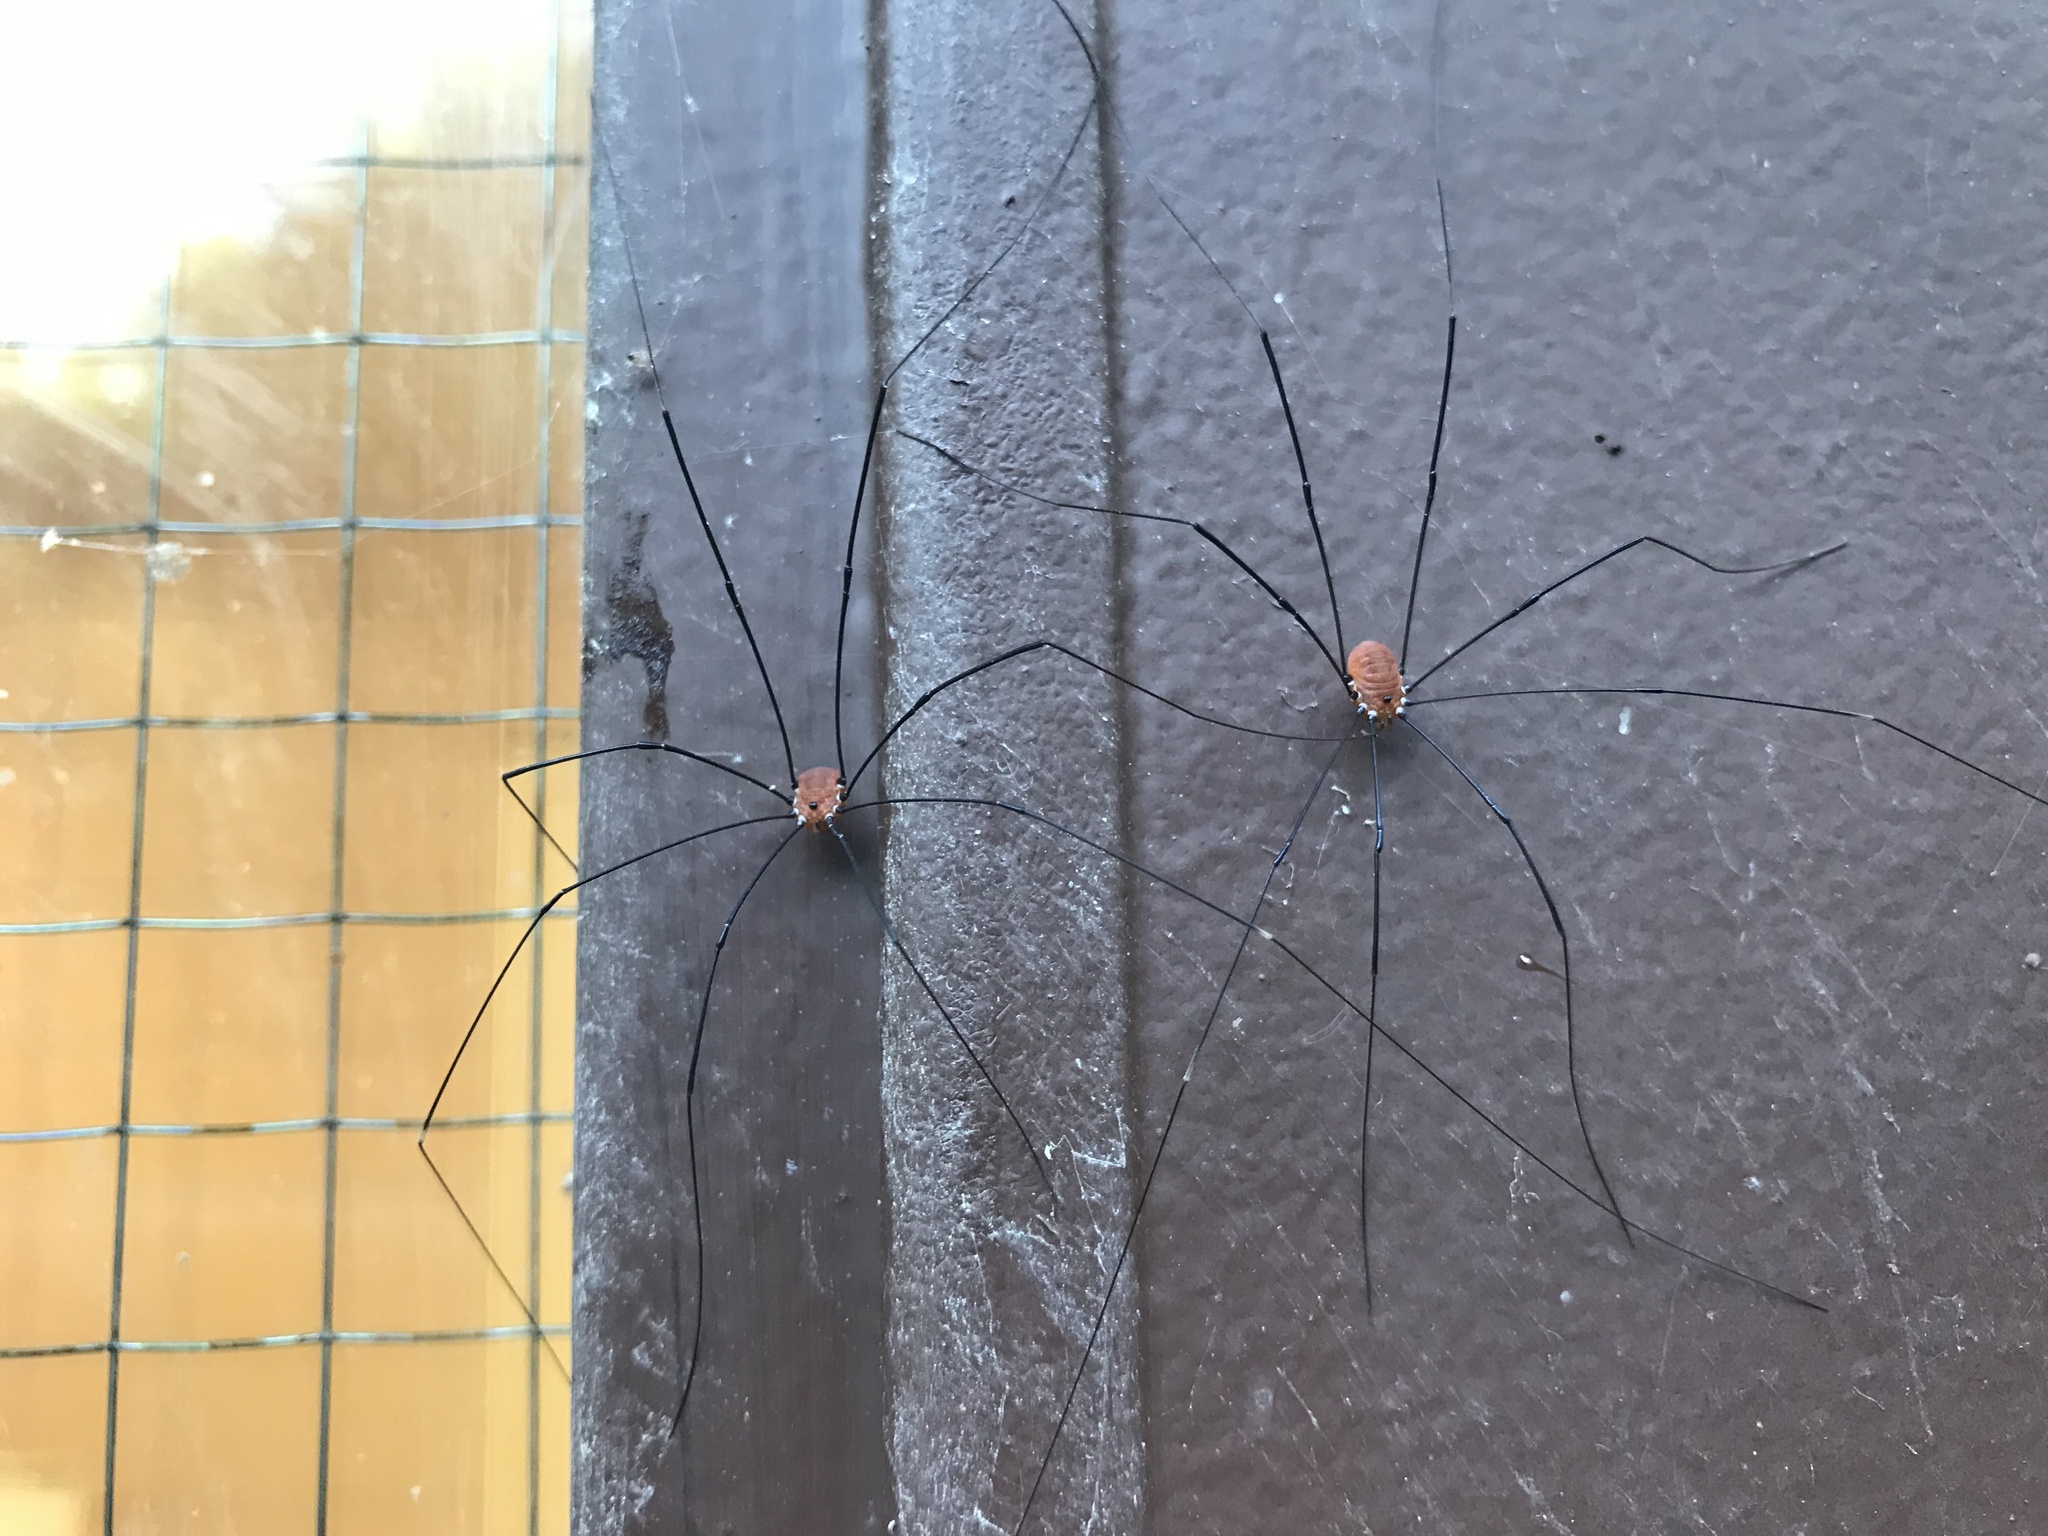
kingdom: Animalia
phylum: Arthropoda
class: Arachnida
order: Opiliones
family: Sclerosomatidae
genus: Leiobunum
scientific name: Leiobunum aldrichi
